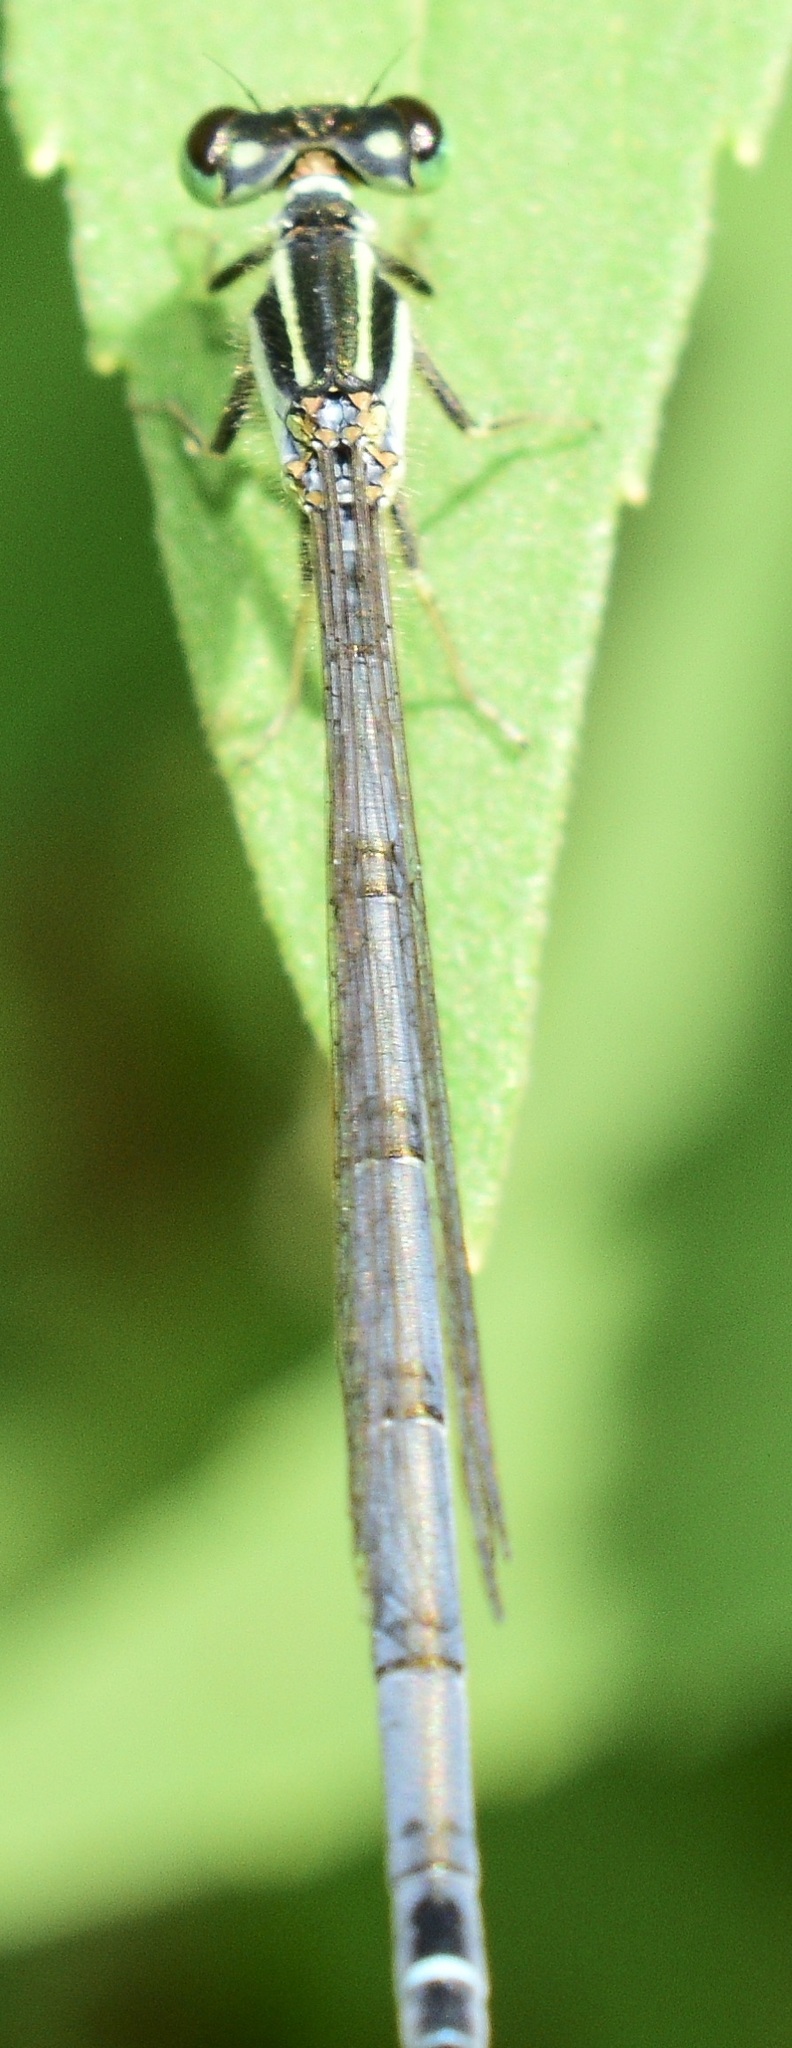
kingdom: Animalia
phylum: Arthropoda
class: Insecta
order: Odonata
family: Coenagrionidae
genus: Ischnura
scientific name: Ischnura verticalis
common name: Eastern forktail
